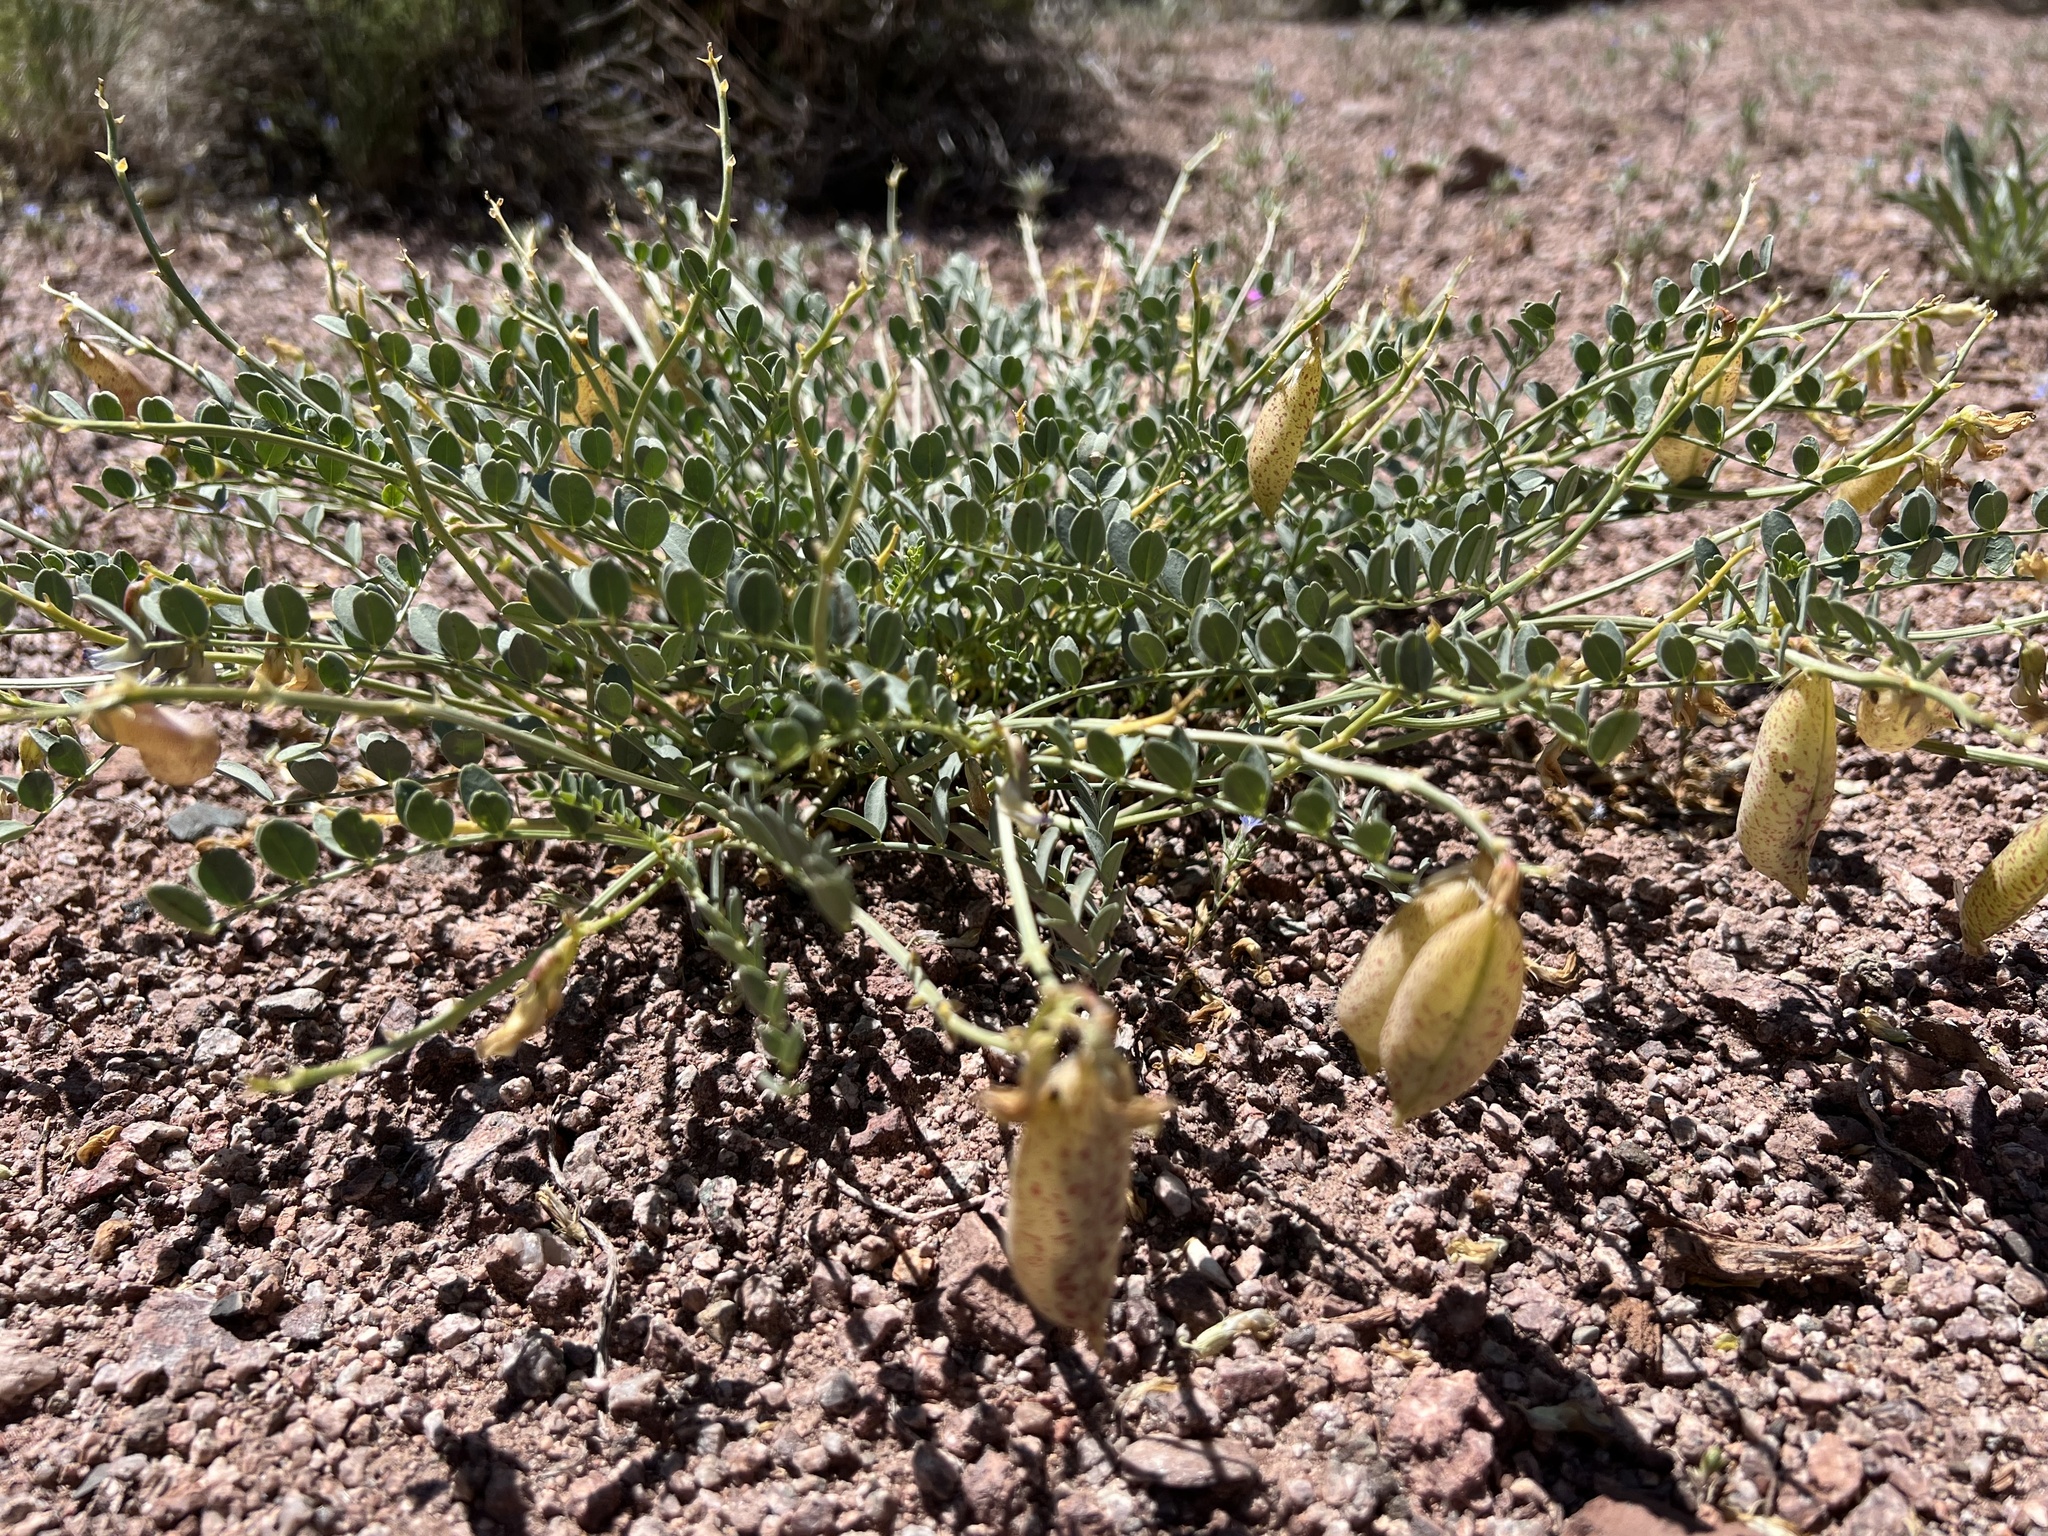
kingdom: Plantae
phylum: Tracheophyta
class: Magnoliopsida
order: Fabales
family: Fabaceae
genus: Astragalus
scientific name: Astragalus oophorus
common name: Egg milkvetch
